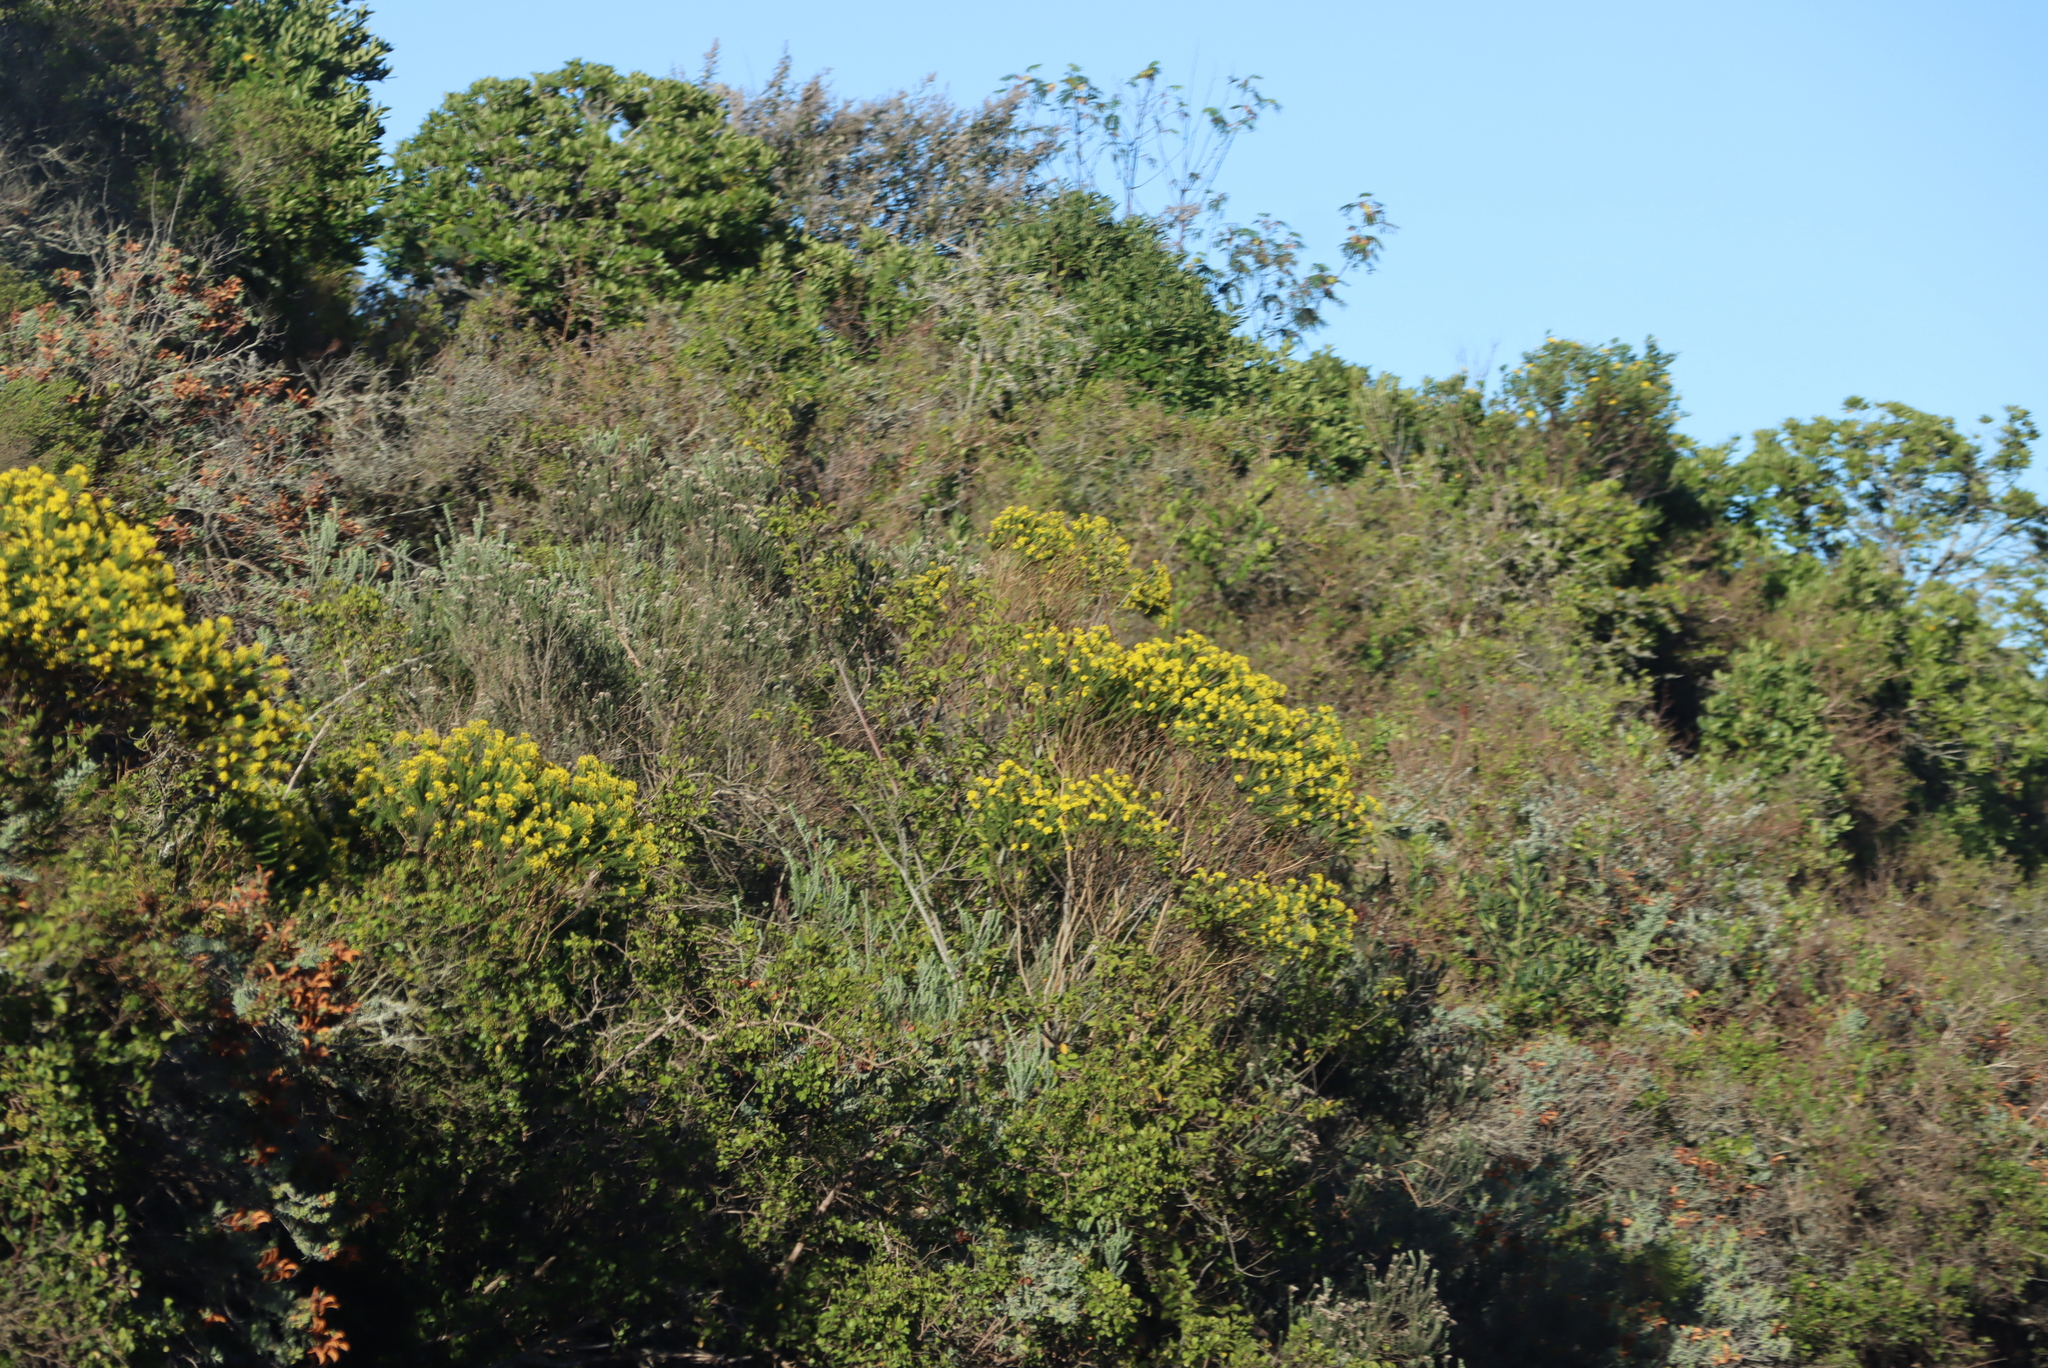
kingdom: Plantae
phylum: Tracheophyta
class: Magnoliopsida
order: Asterales
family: Asteraceae
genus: Euryops
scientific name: Euryops virgineus
